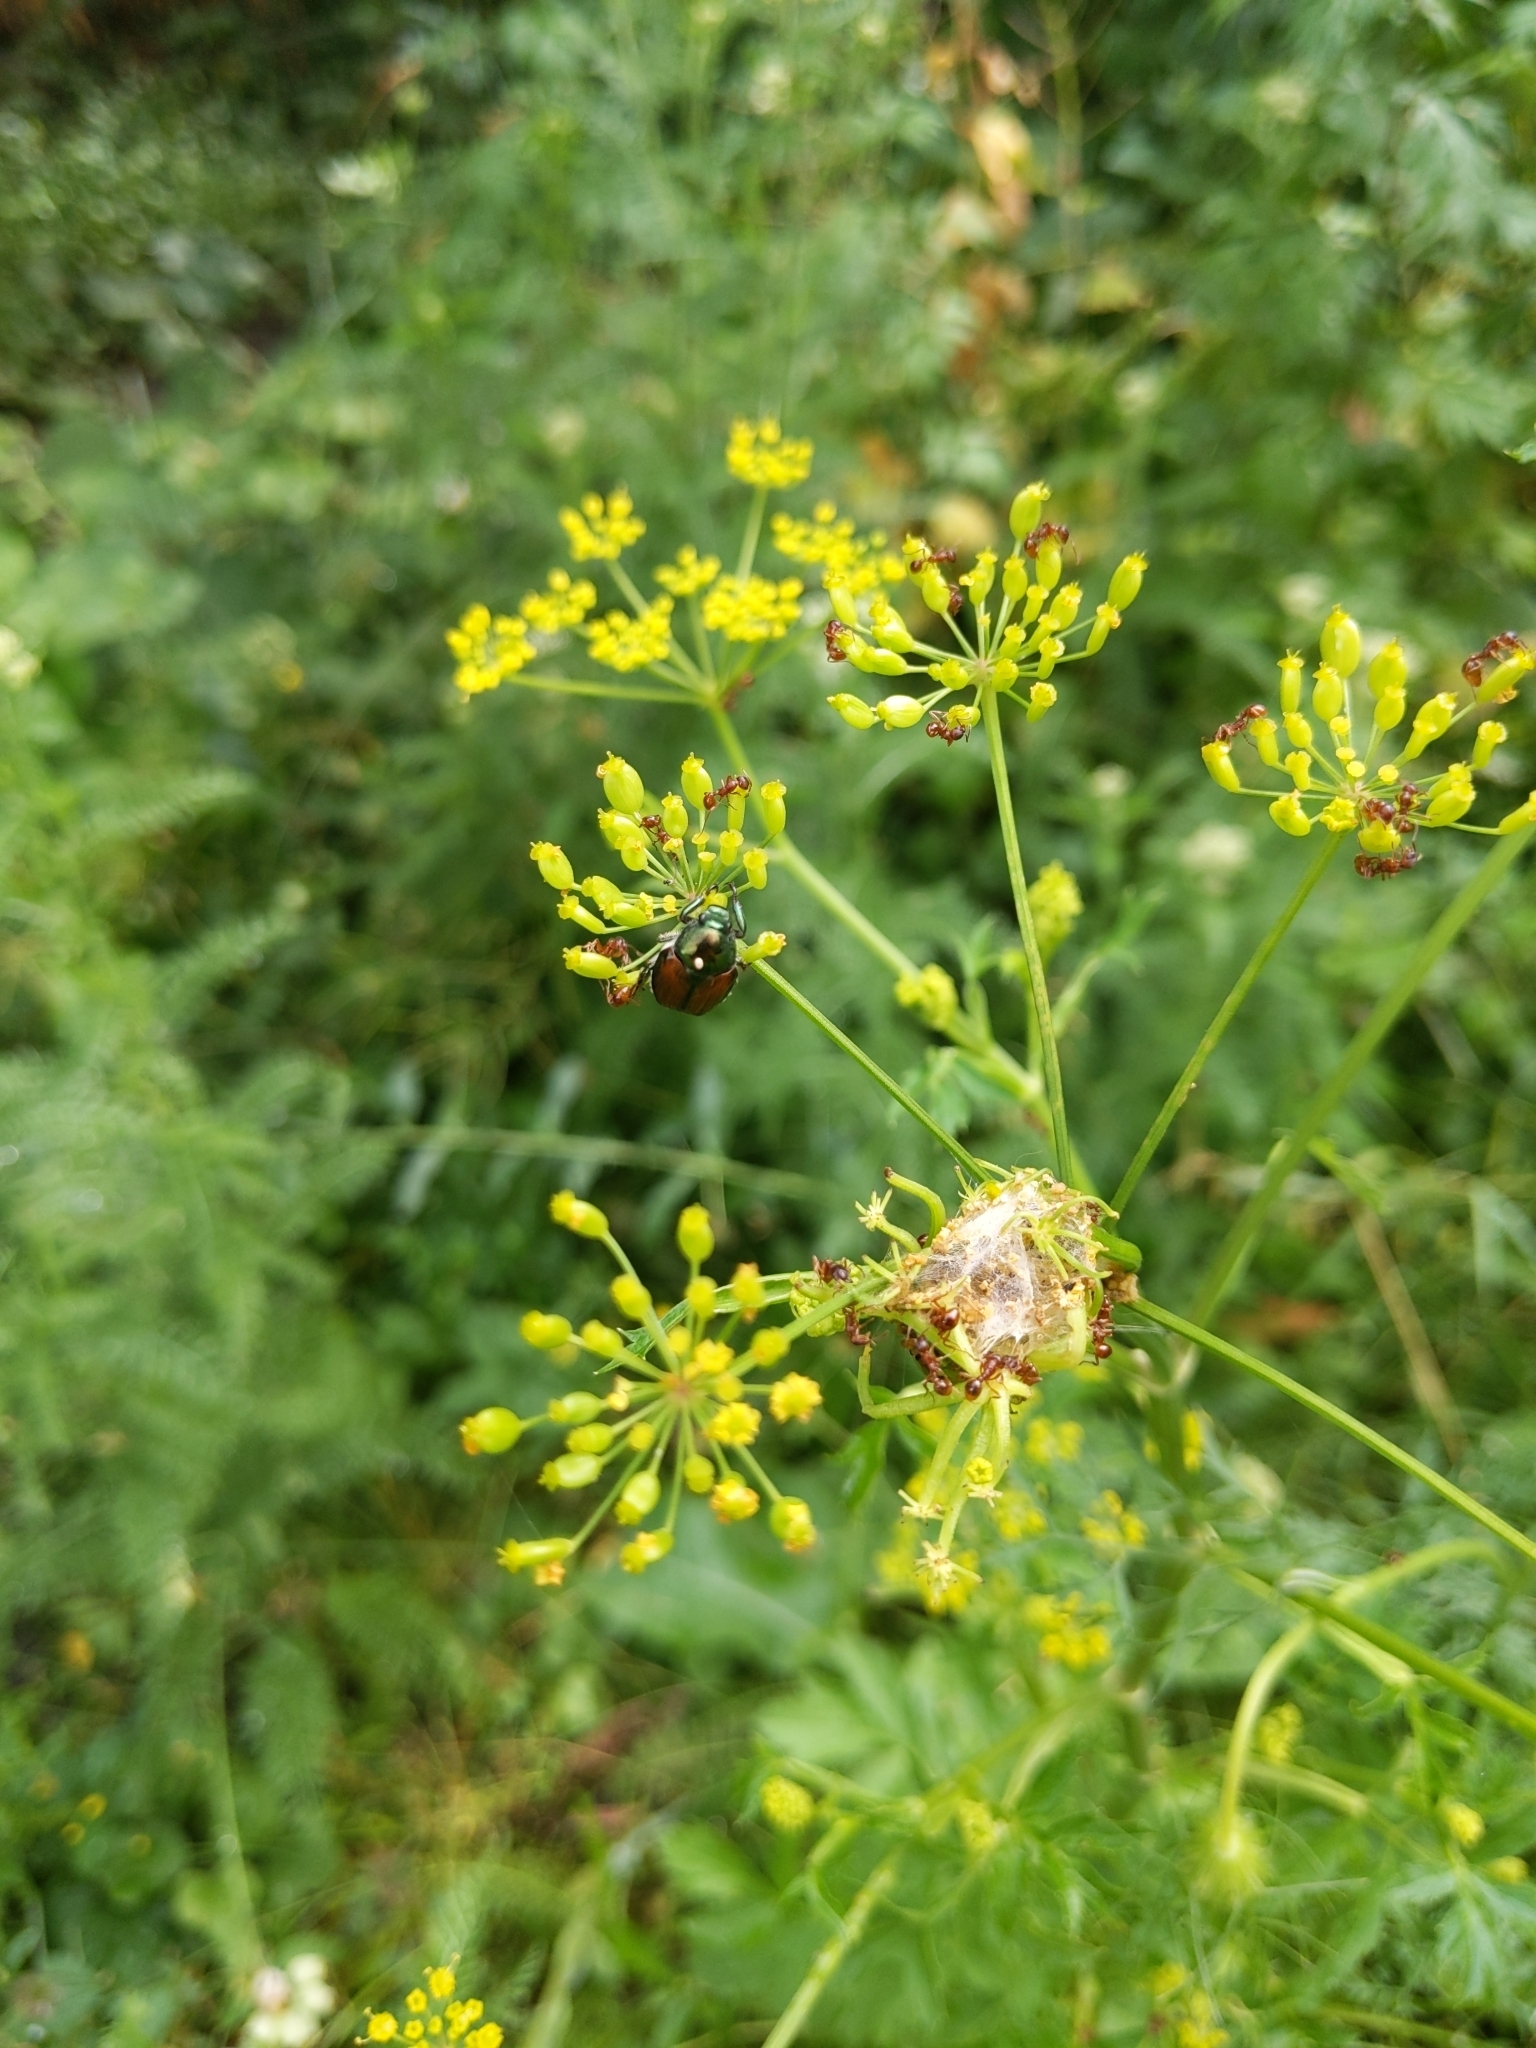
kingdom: Animalia
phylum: Arthropoda
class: Insecta
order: Coleoptera
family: Scarabaeidae
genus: Popillia
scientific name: Popillia japonica
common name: Japanese beetle
